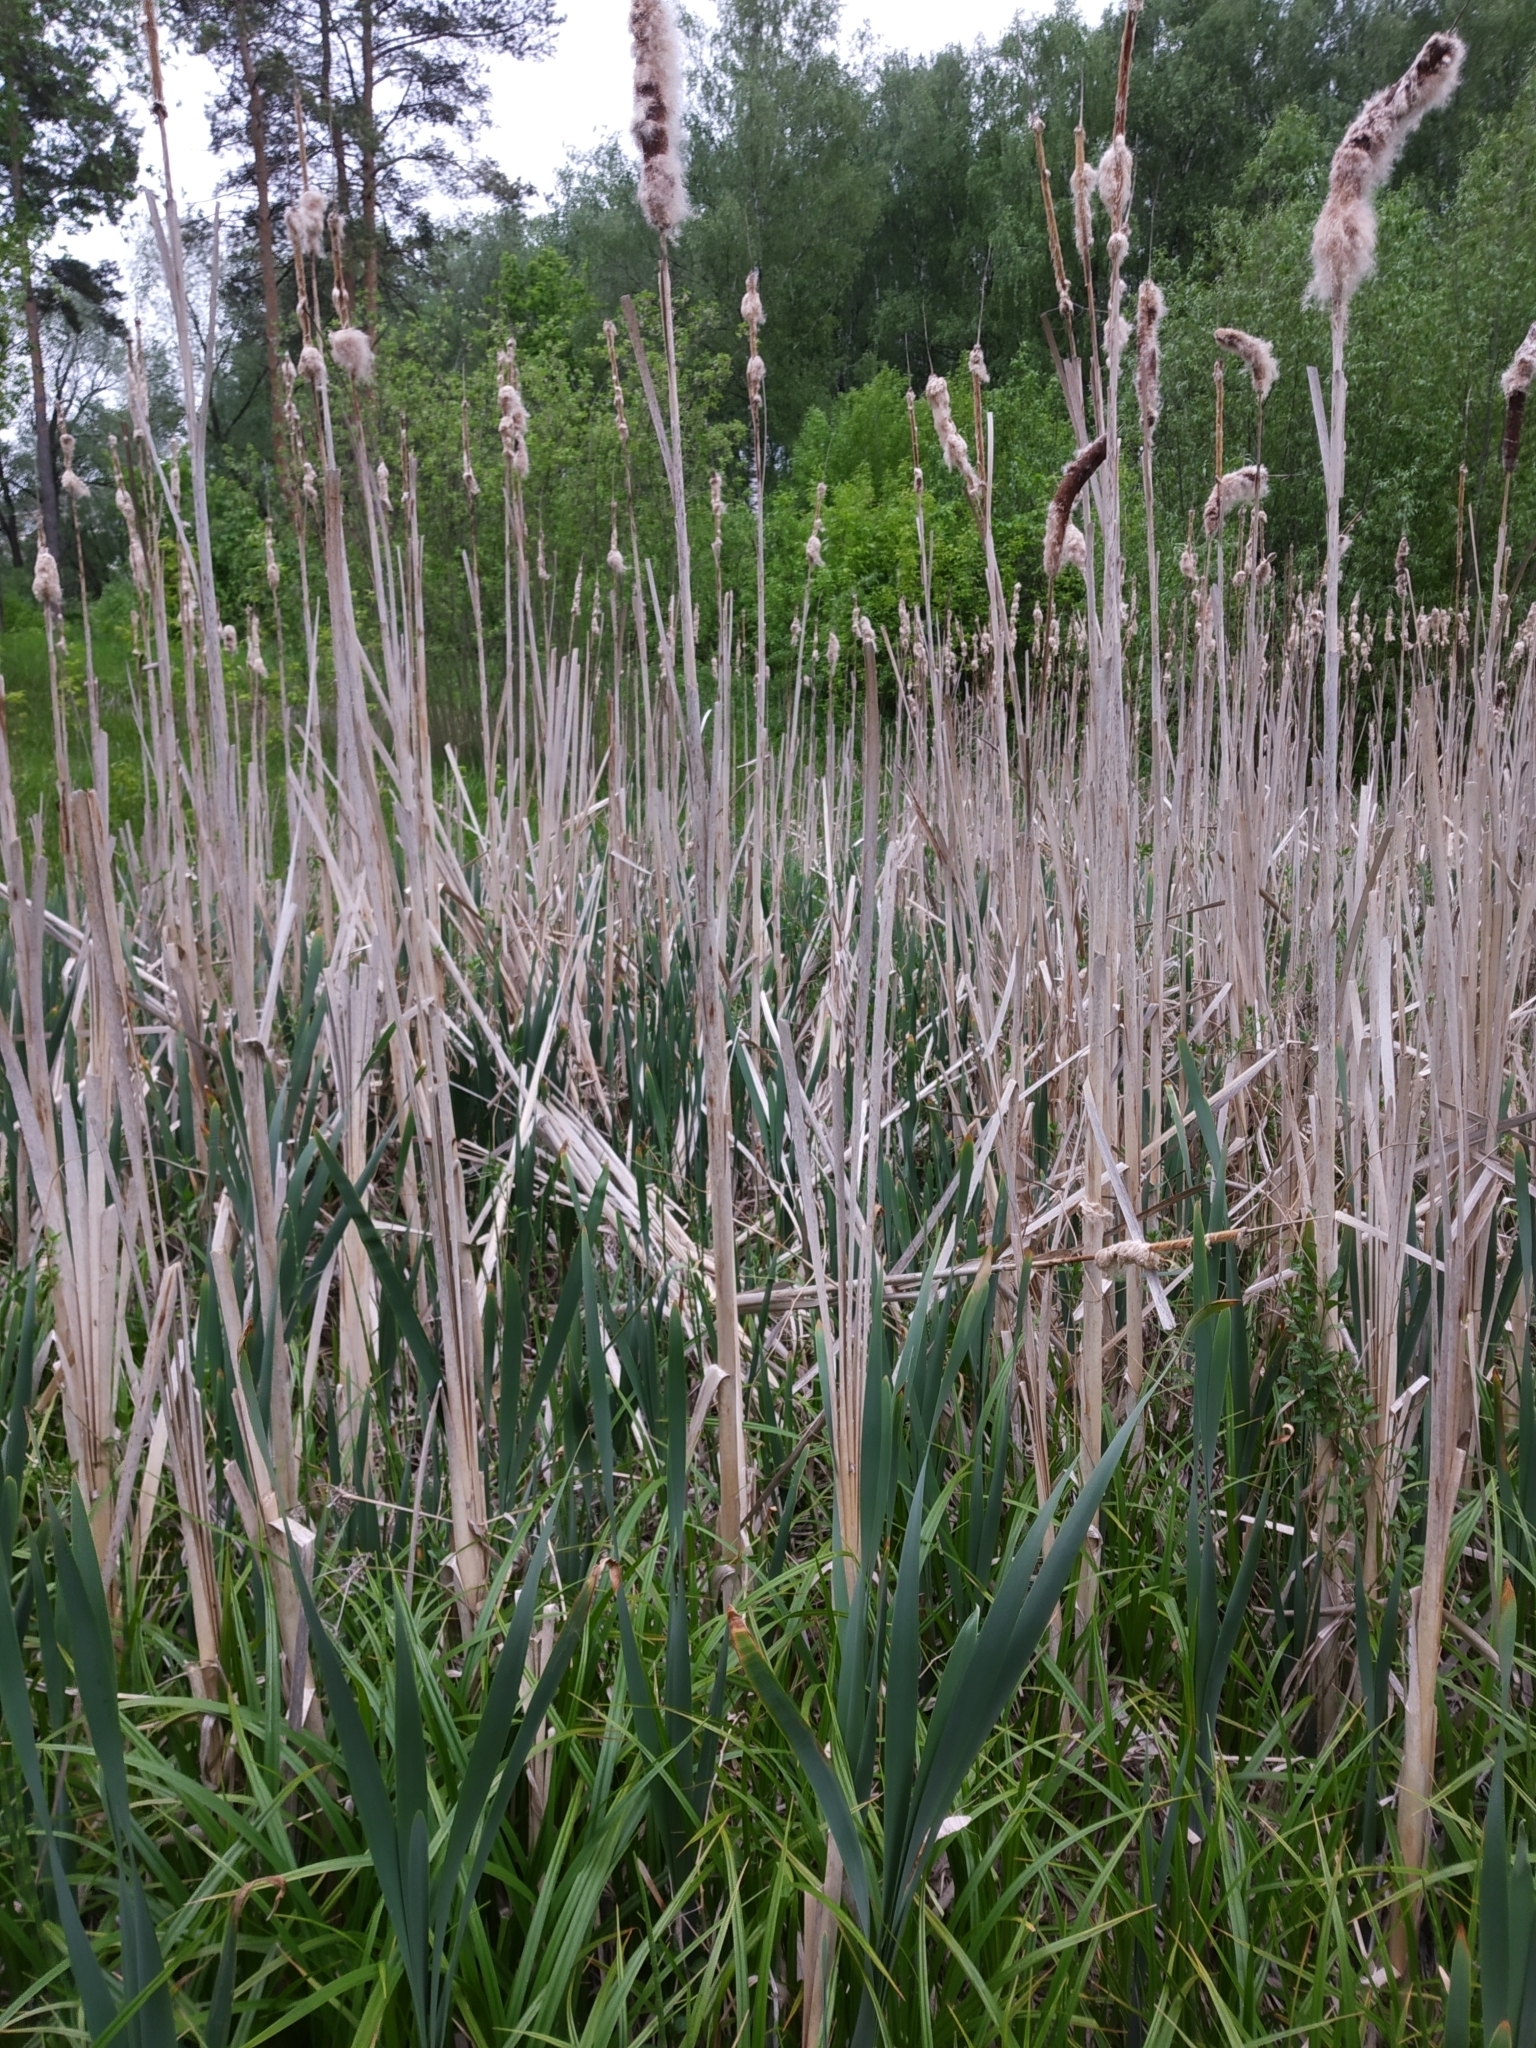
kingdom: Plantae
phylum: Tracheophyta
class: Liliopsida
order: Poales
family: Typhaceae
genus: Typha
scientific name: Typha latifolia
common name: Broadleaf cattail
